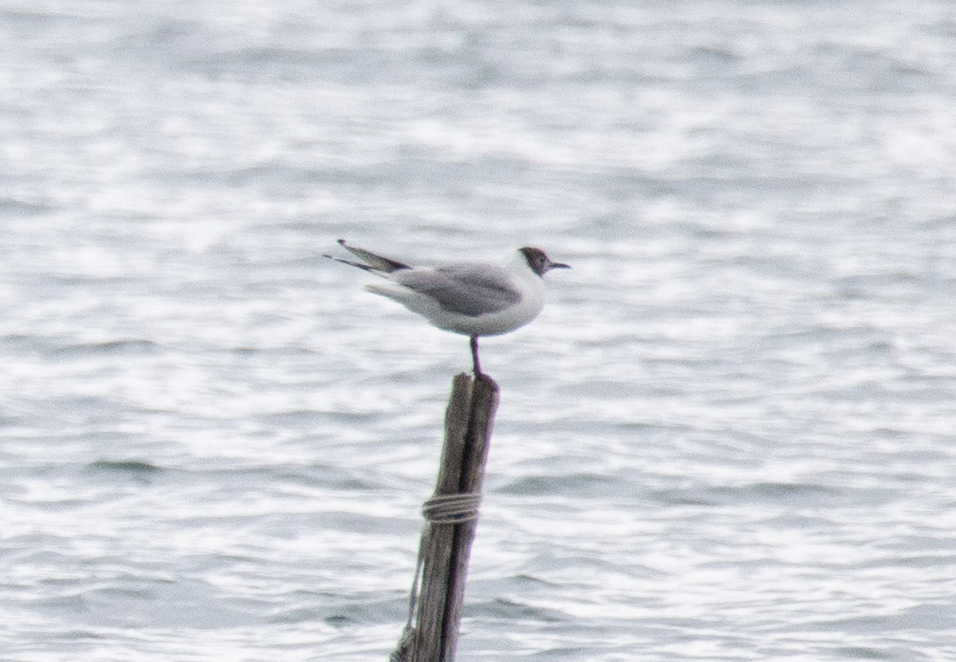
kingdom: Animalia
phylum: Chordata
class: Aves
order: Charadriiformes
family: Laridae
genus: Chroicocephalus
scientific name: Chroicocephalus ridibundus
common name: Black-headed gull
